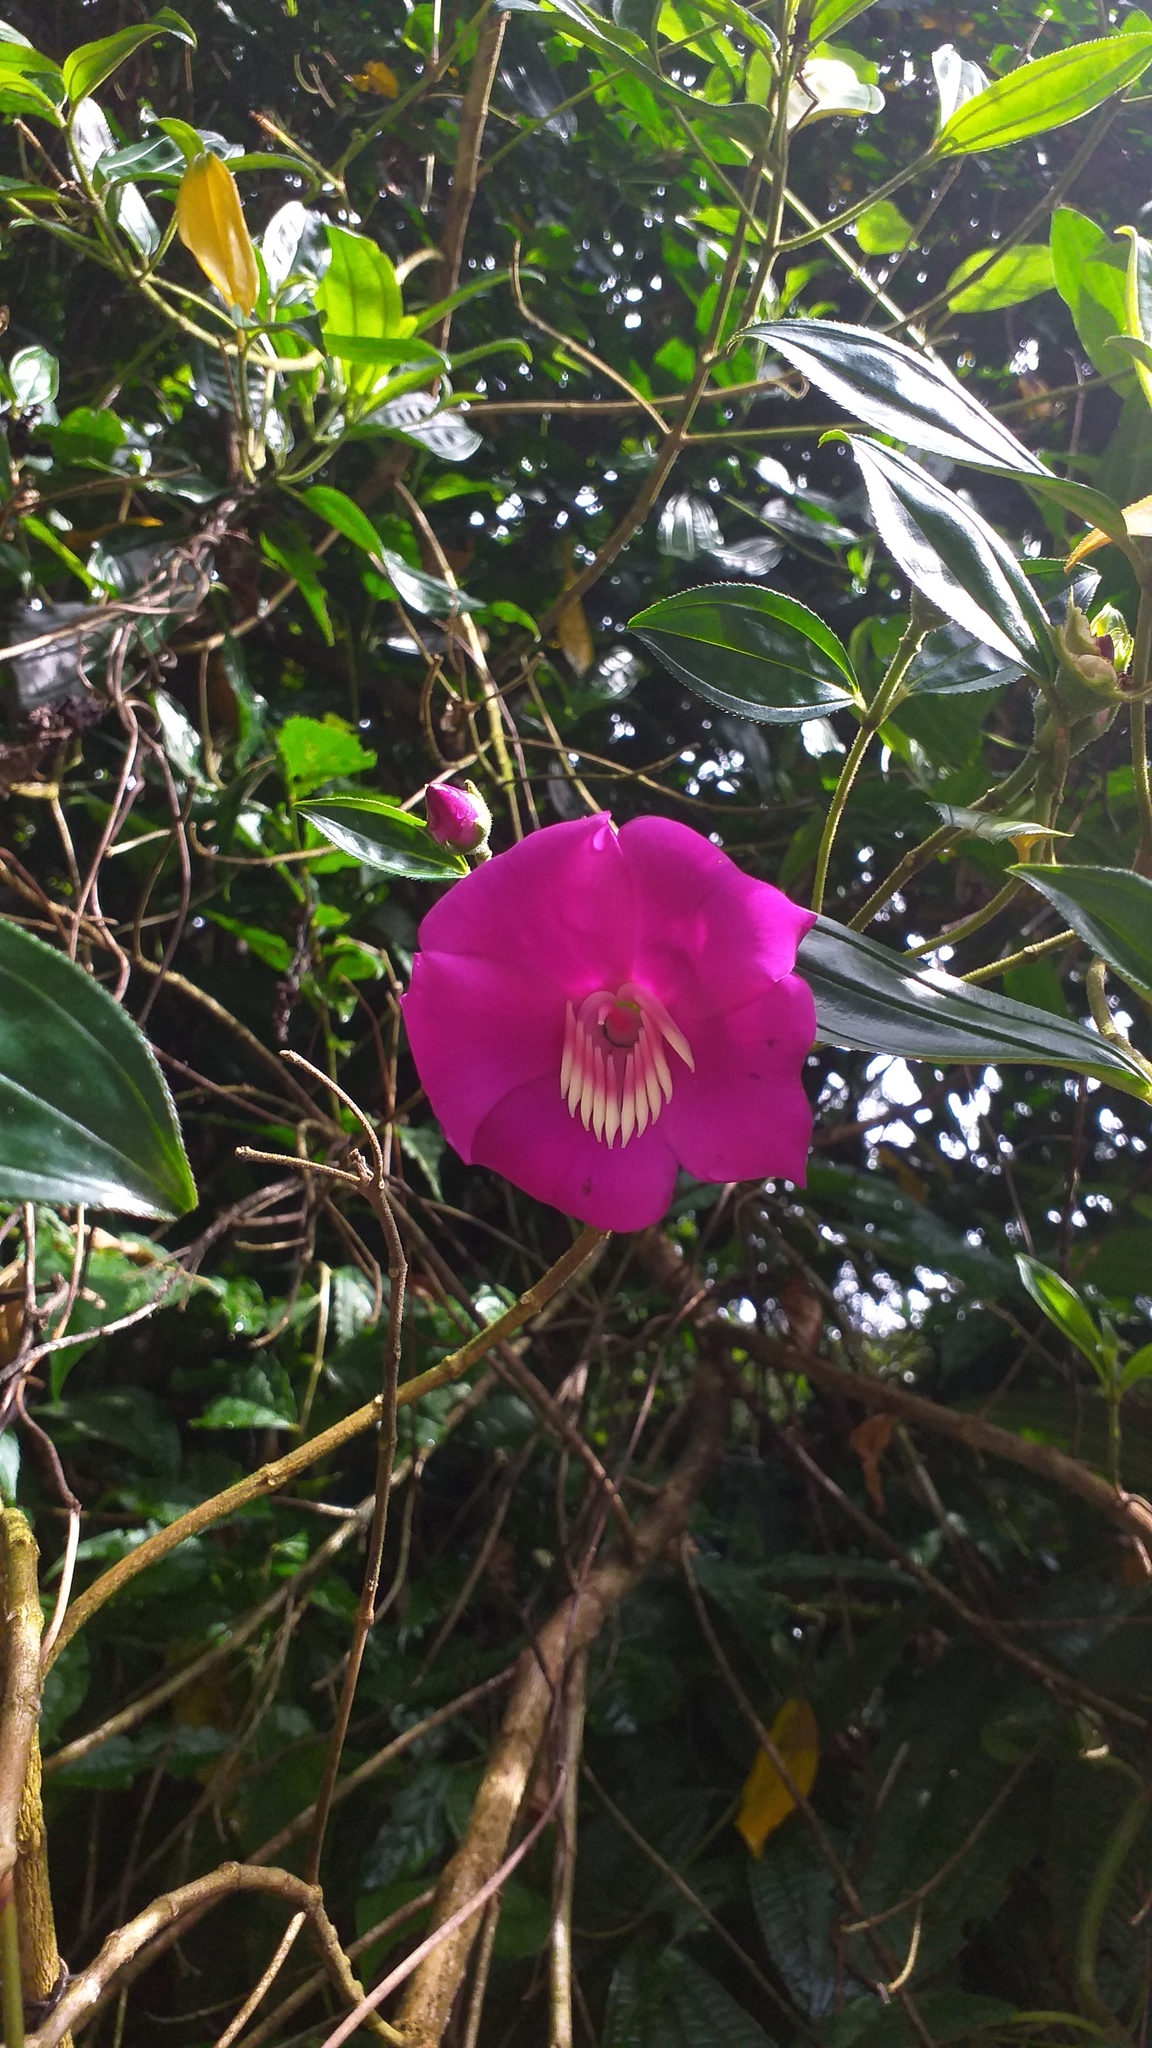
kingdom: Plantae
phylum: Tracheophyta
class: Magnoliopsida
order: Myrtales
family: Melastomataceae
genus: Meriania
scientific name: Meriania speciosa
